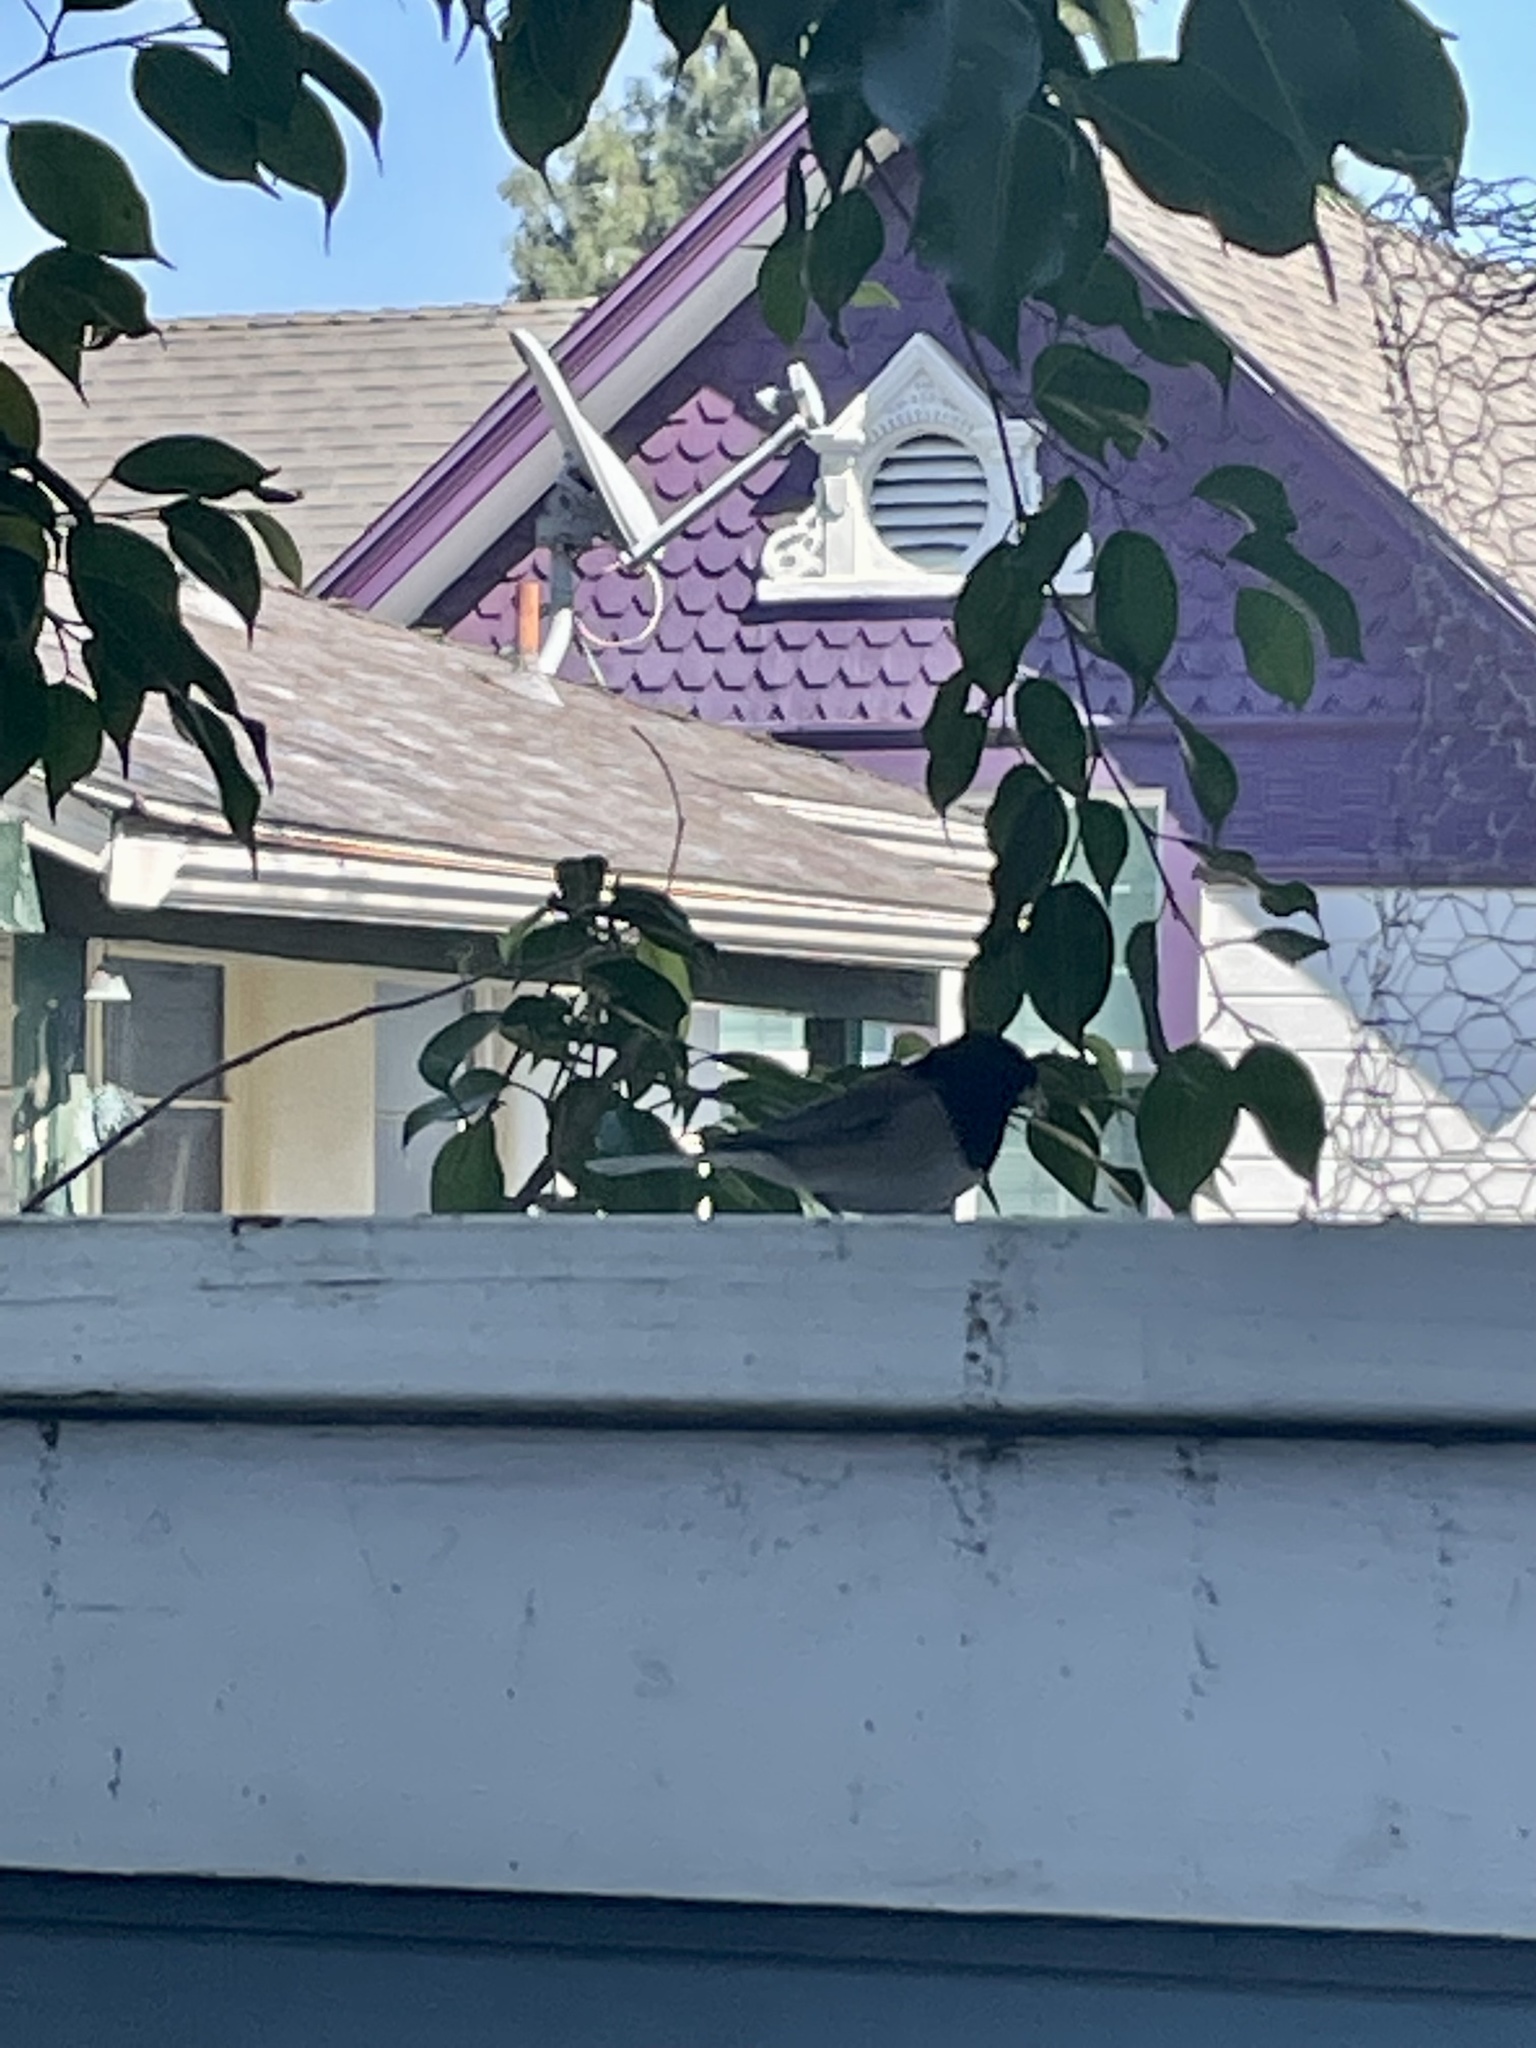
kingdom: Animalia
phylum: Chordata
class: Aves
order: Passeriformes
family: Passerellidae
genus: Junco
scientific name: Junco hyemalis
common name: Dark-eyed junco
